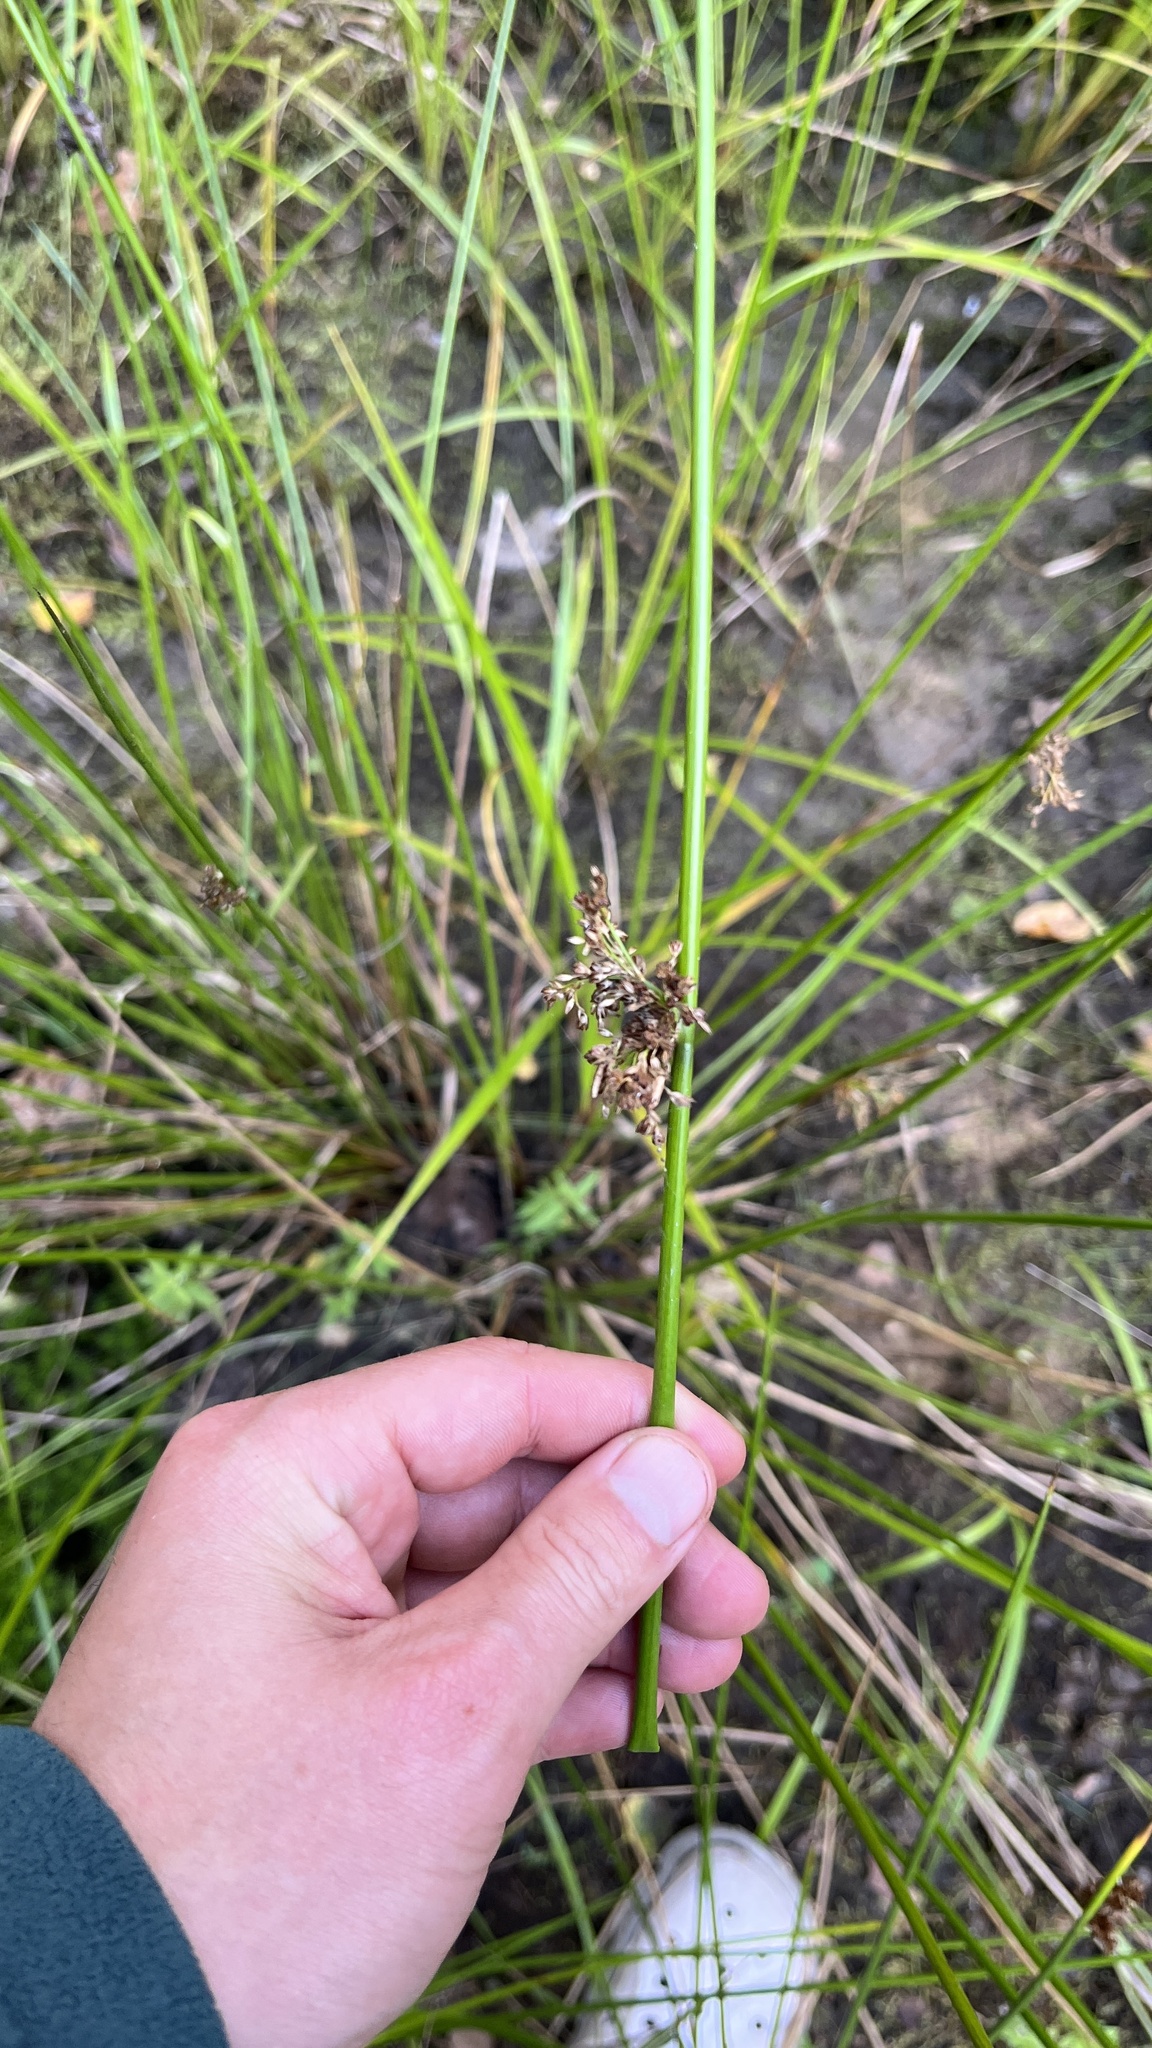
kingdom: Plantae
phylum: Tracheophyta
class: Liliopsida
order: Poales
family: Juncaceae
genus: Juncus
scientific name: Juncus effusus
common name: Soft rush
